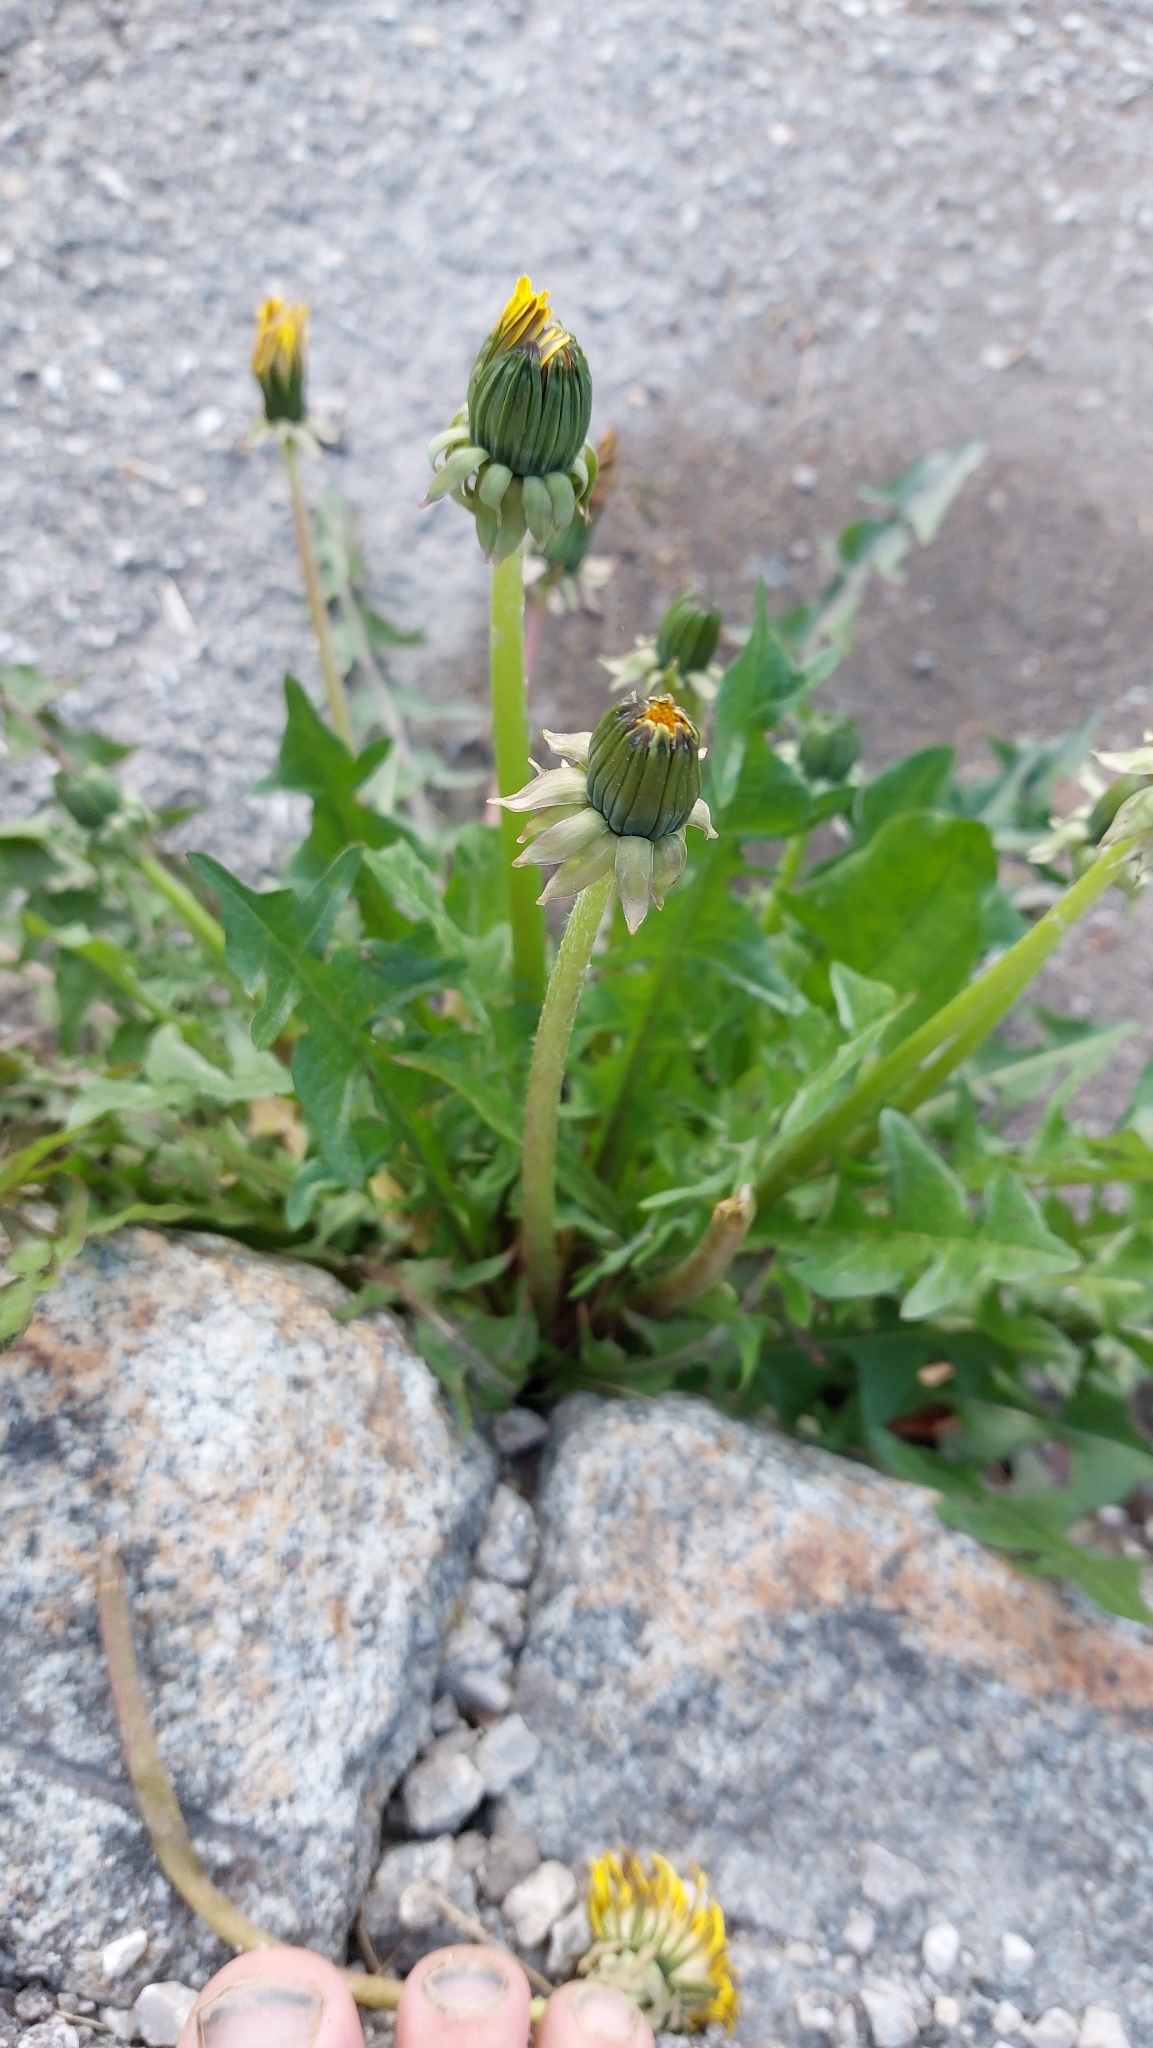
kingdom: Plantae
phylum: Tracheophyta
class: Magnoliopsida
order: Asterales
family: Asteraceae
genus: Taraxacum
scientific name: Taraxacum
